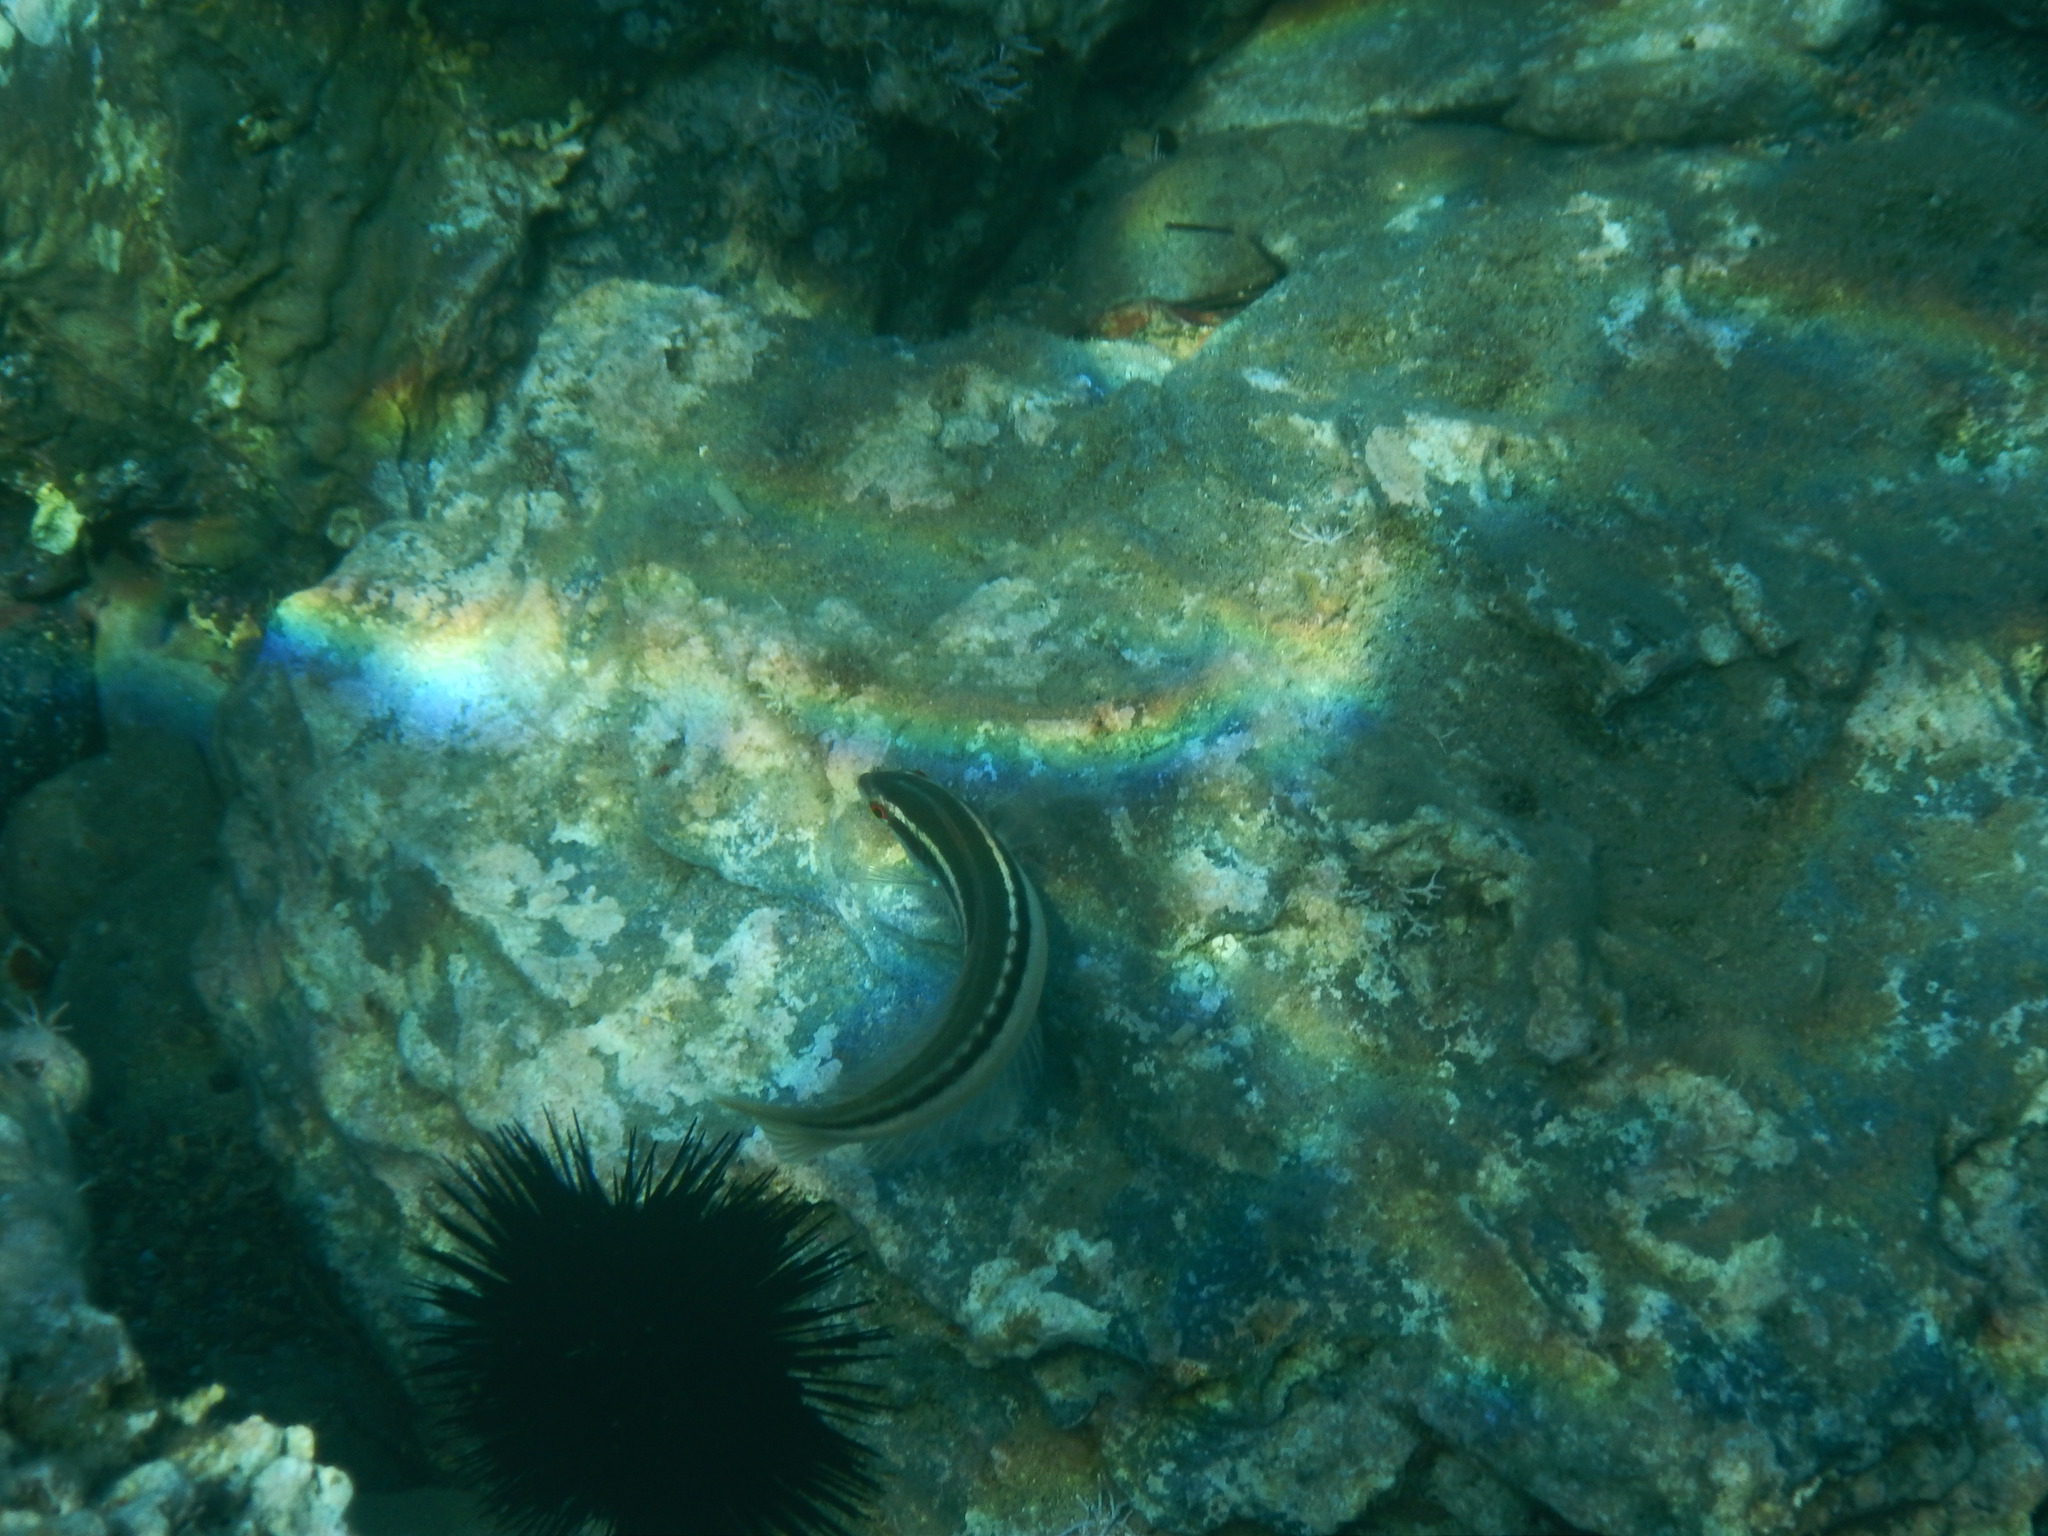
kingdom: Animalia
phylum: Chordata
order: Perciformes
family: Labridae
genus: Coris
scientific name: Coris julis
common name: Rainbow wrasse
